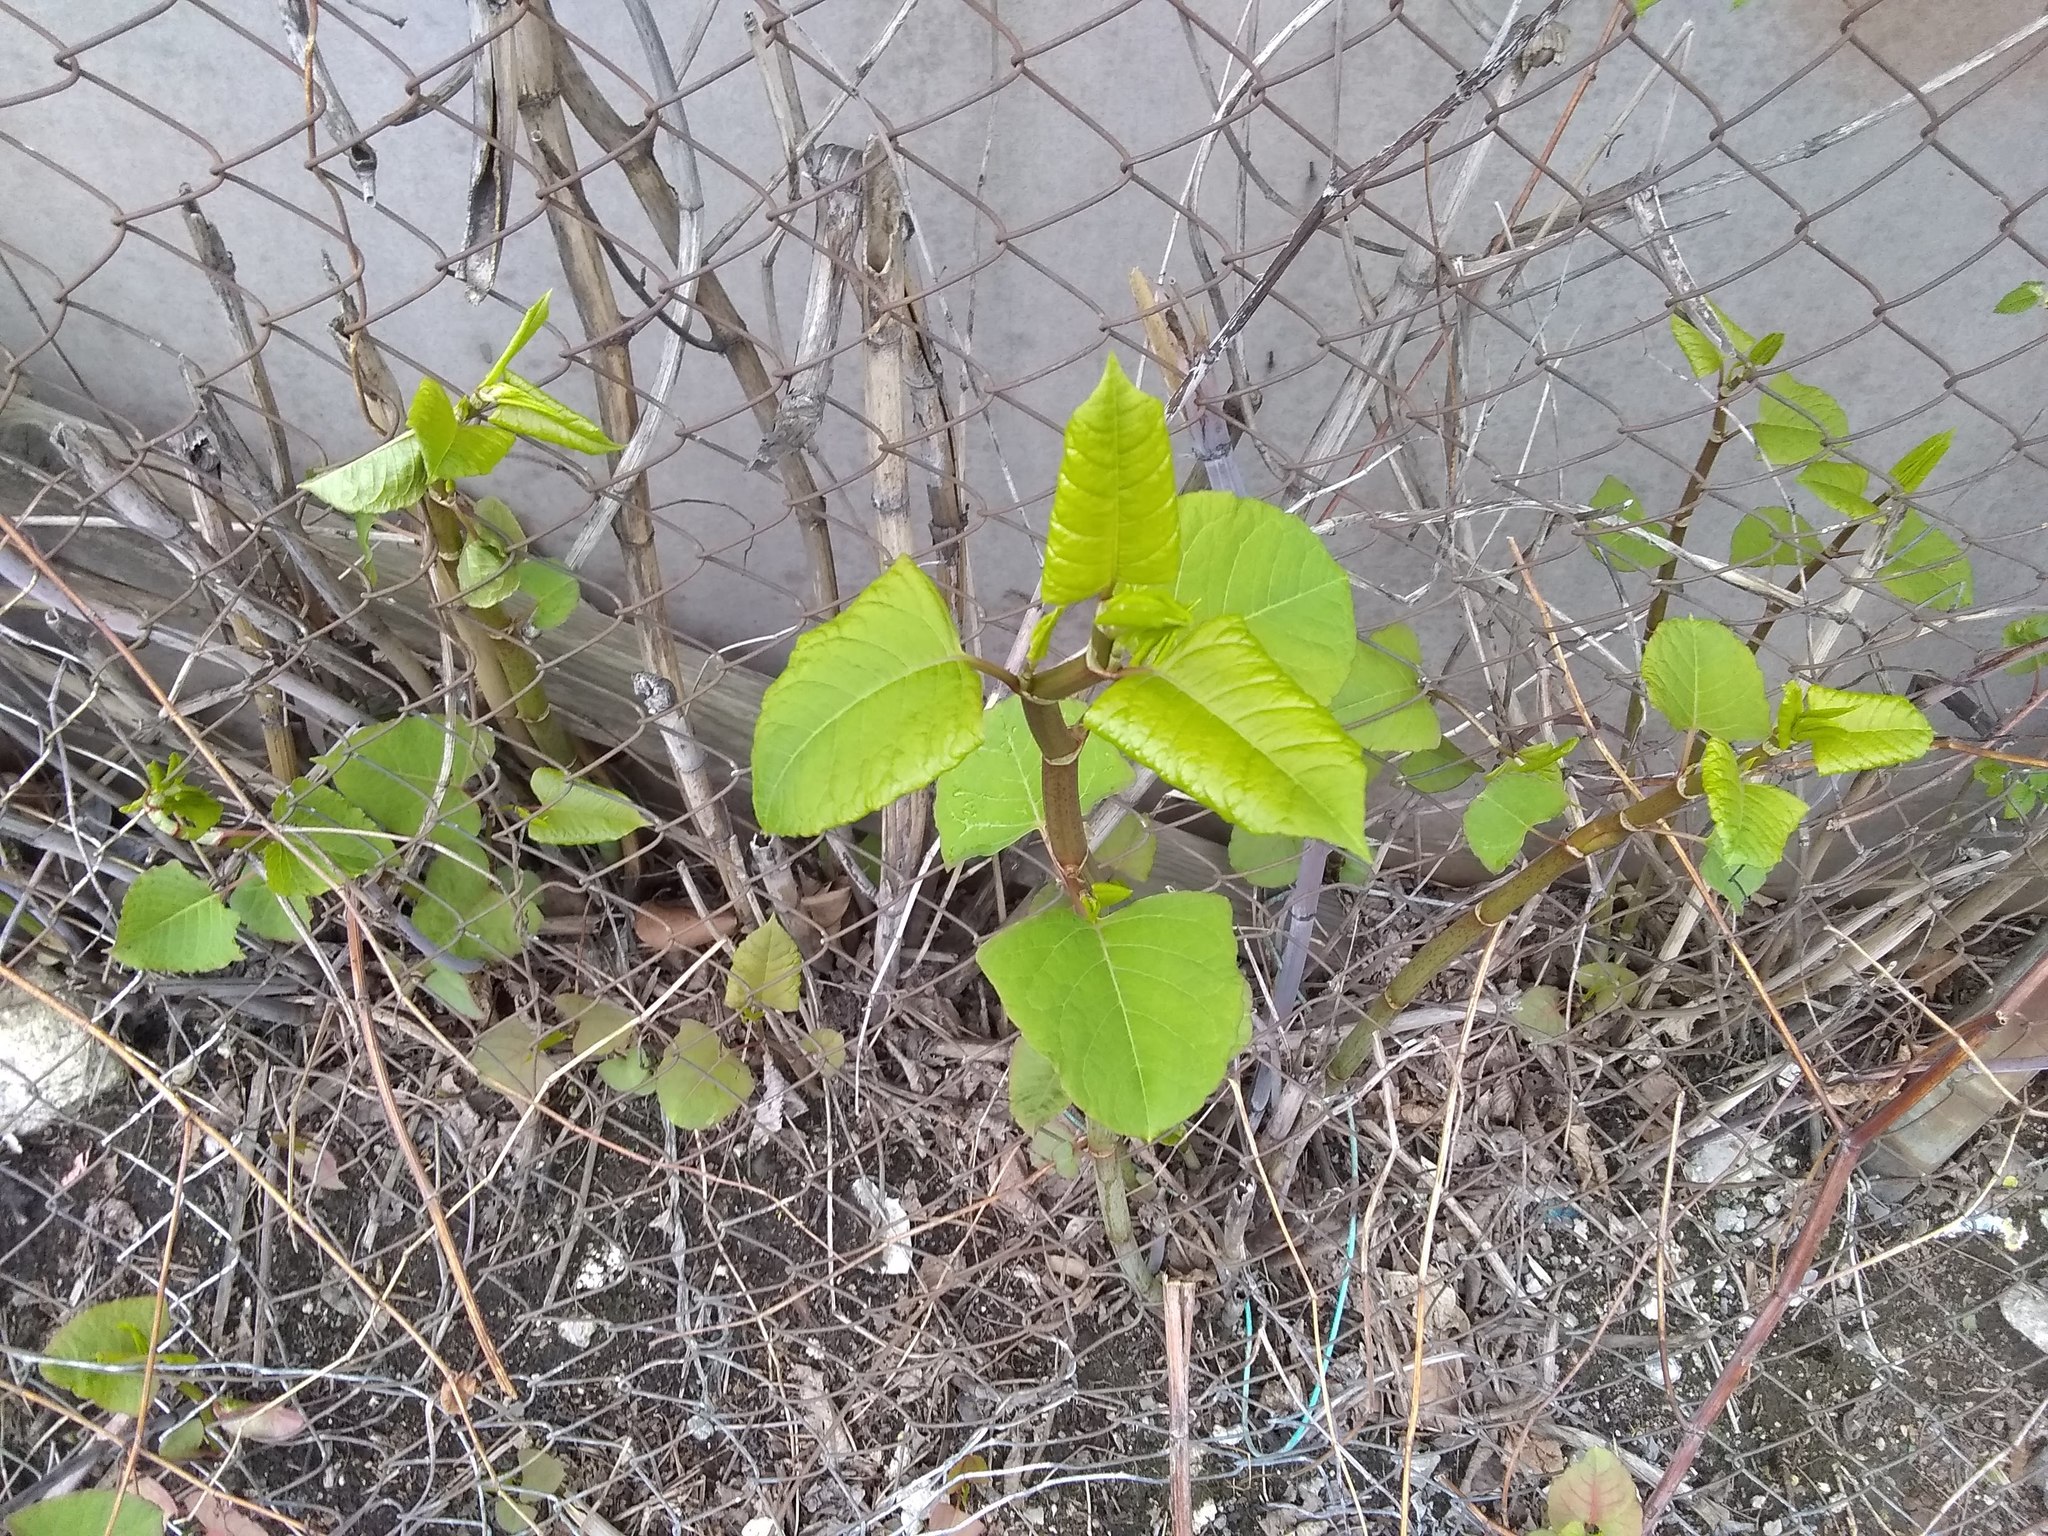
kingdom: Plantae
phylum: Tracheophyta
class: Magnoliopsida
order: Caryophyllales
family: Polygonaceae
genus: Reynoutria
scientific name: Reynoutria japonica
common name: Japanese knotweed
